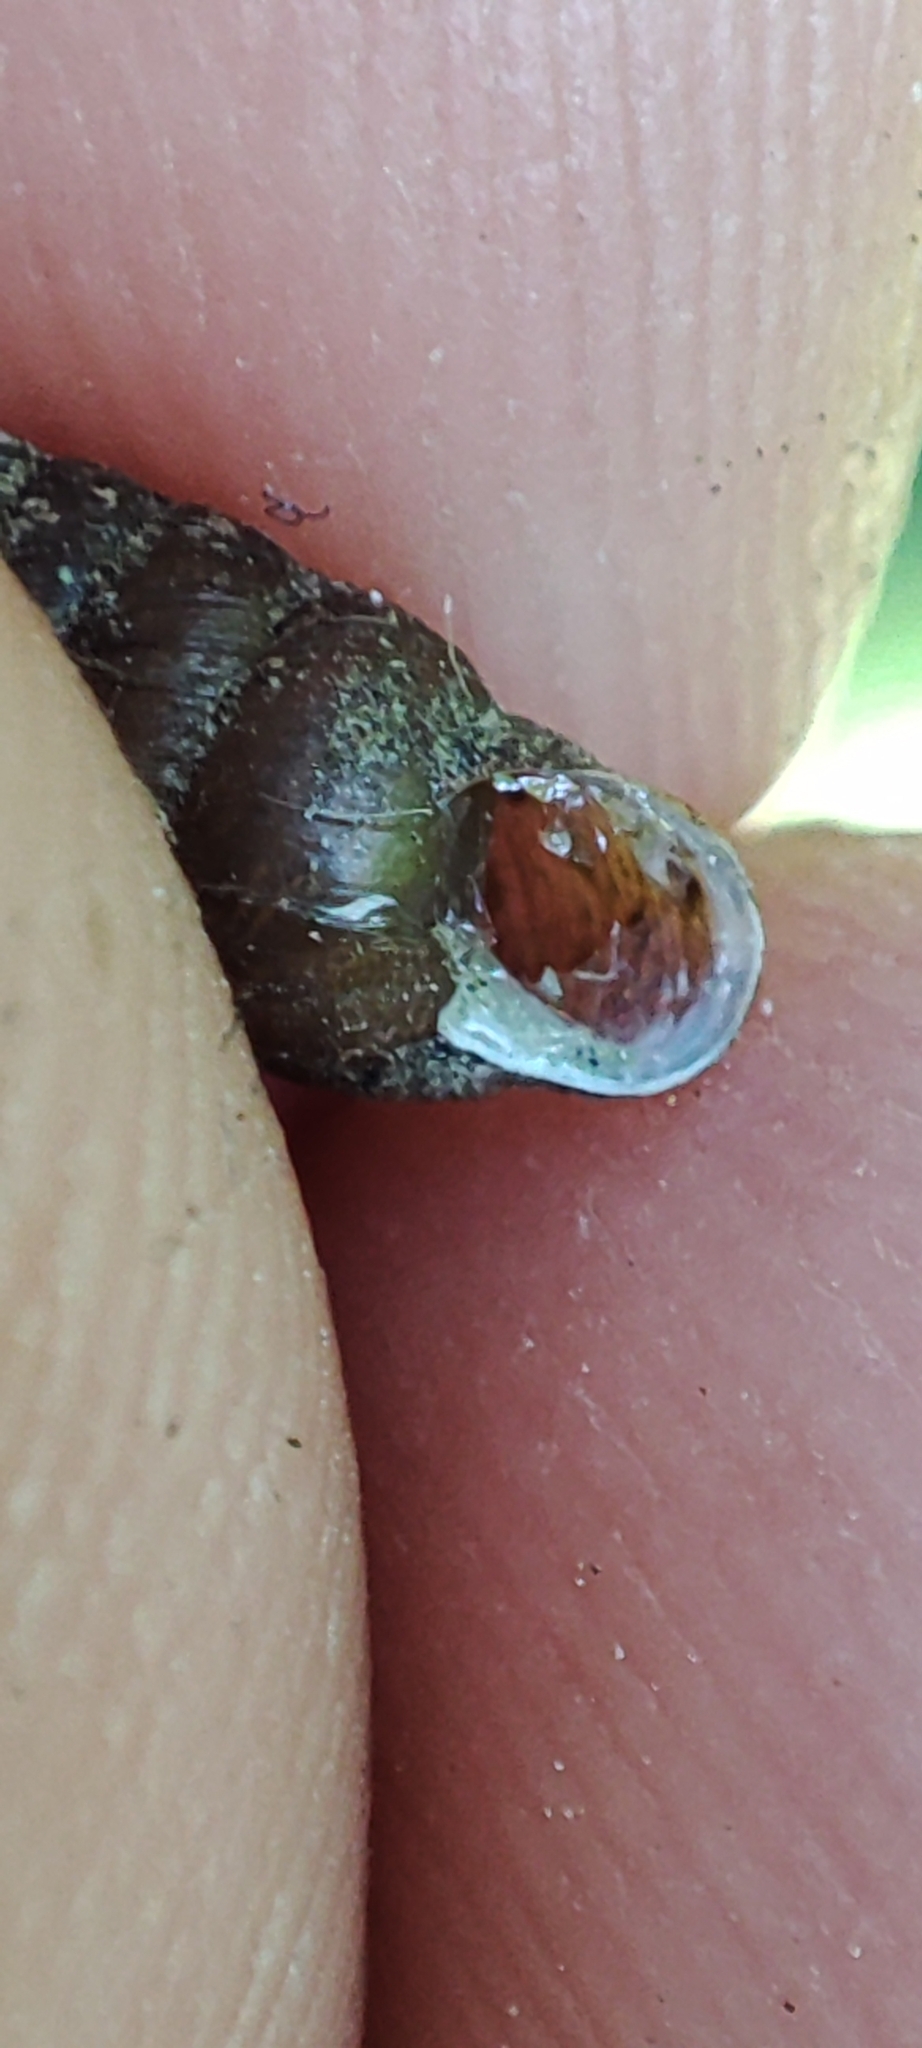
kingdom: Animalia
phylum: Mollusca
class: Gastropoda
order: Stylommatophora
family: Enidae
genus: Merdigera
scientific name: Merdigera obscura
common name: Lesser bulin
